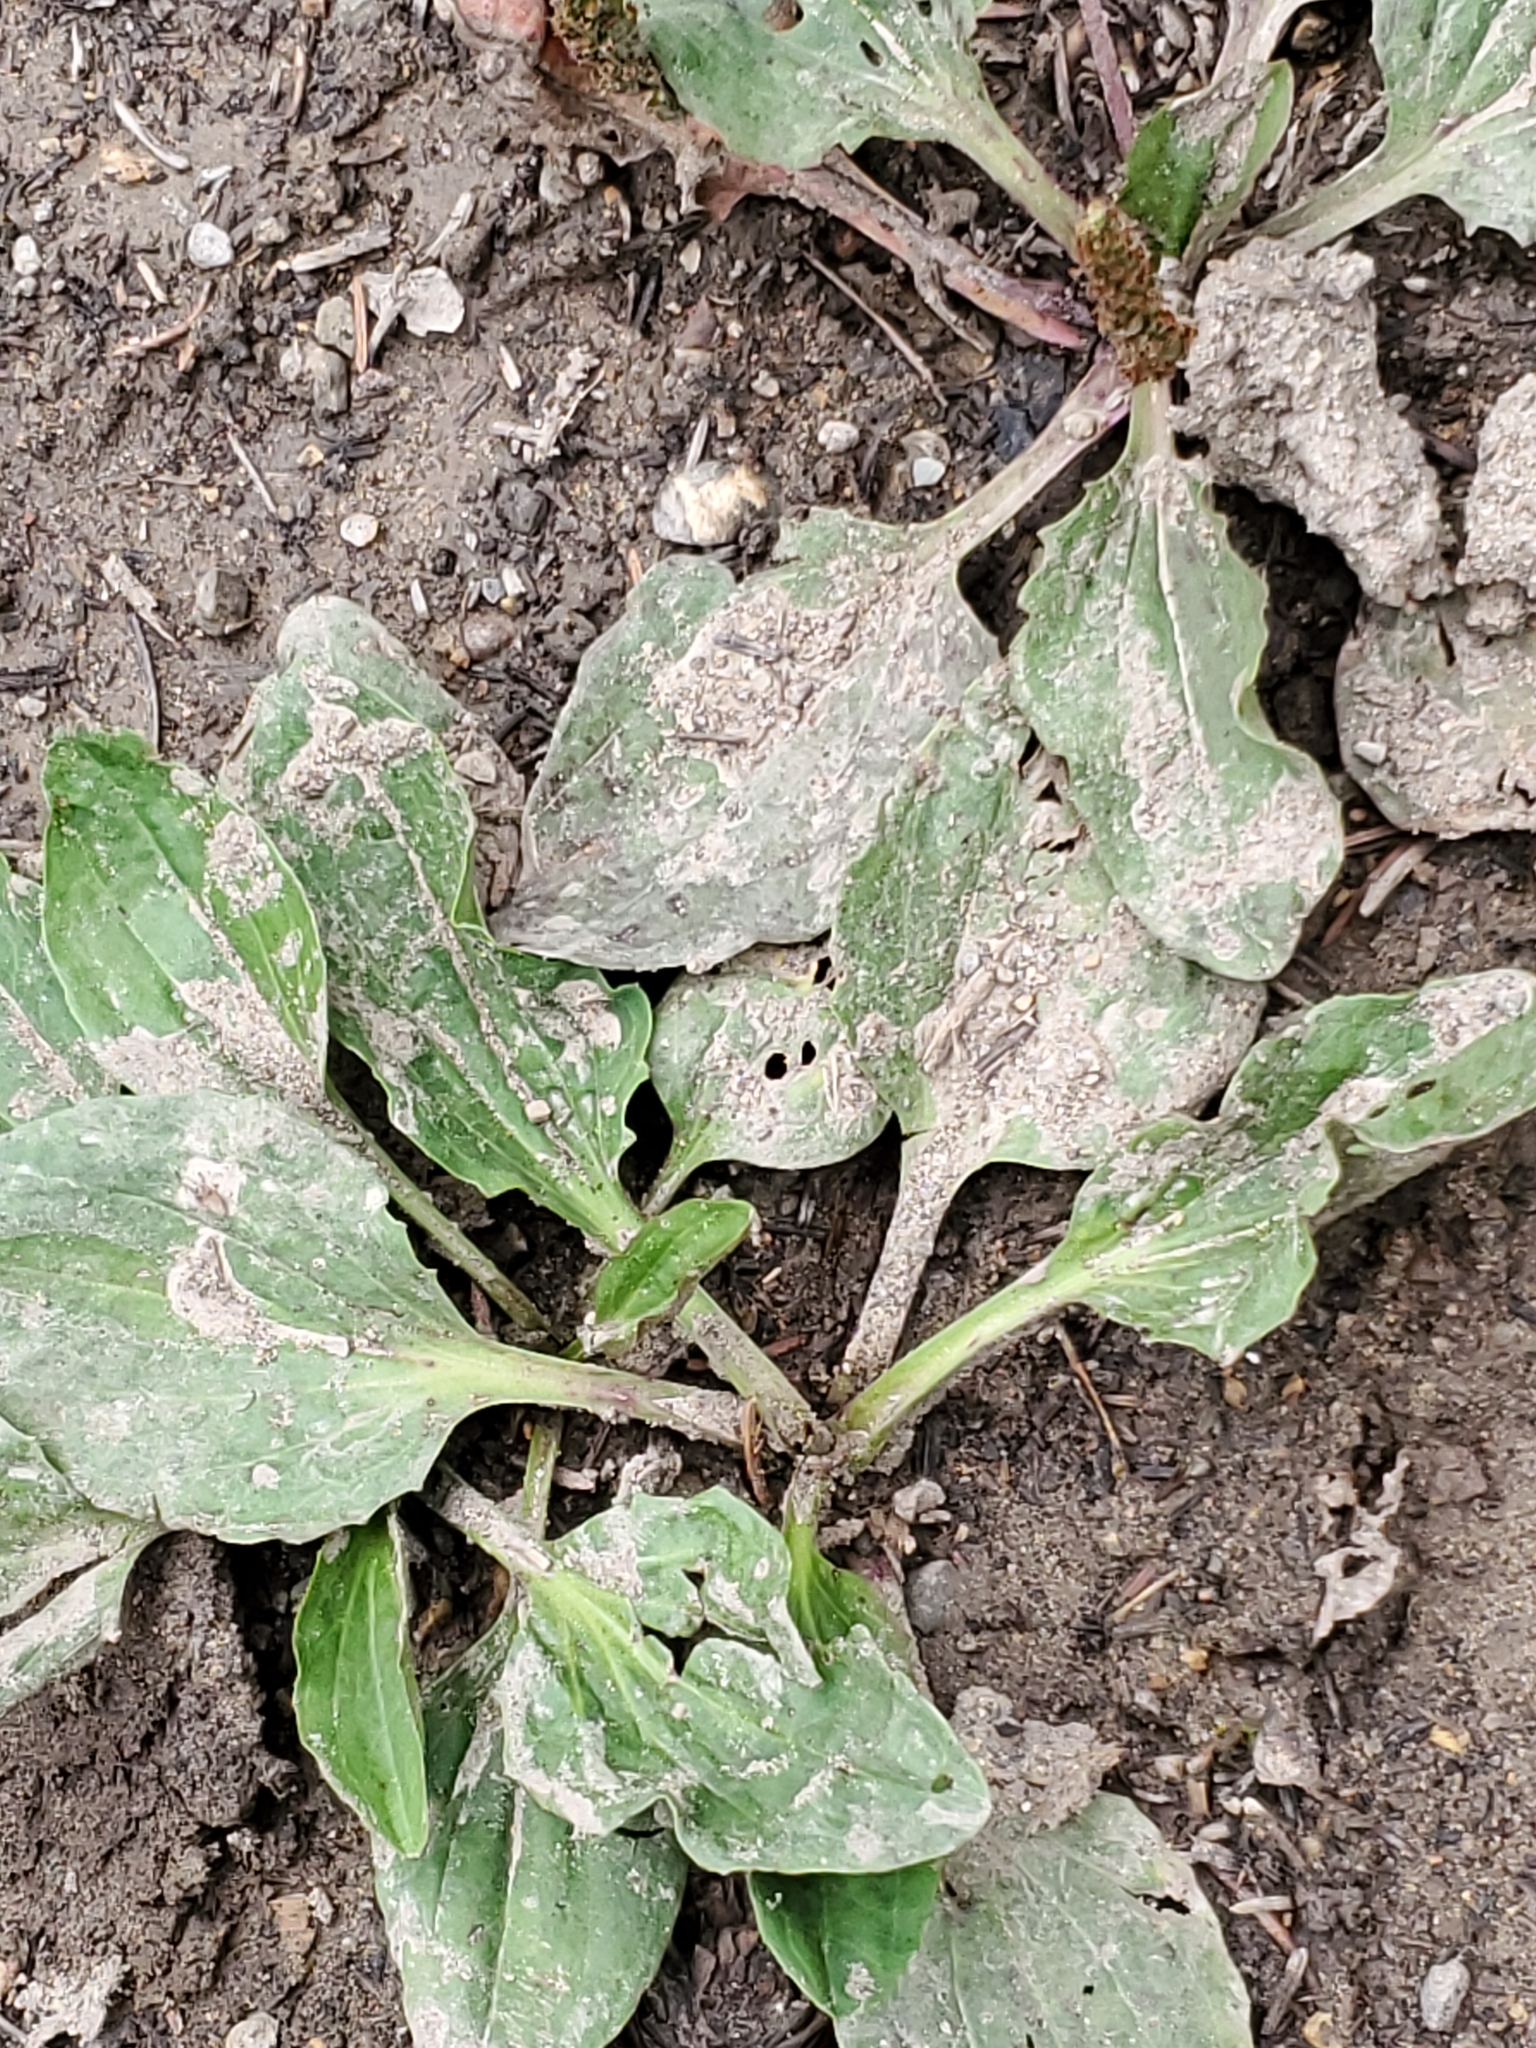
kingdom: Plantae
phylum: Tracheophyta
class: Magnoliopsida
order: Lamiales
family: Plantaginaceae
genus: Plantago
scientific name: Plantago major
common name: Common plantain
